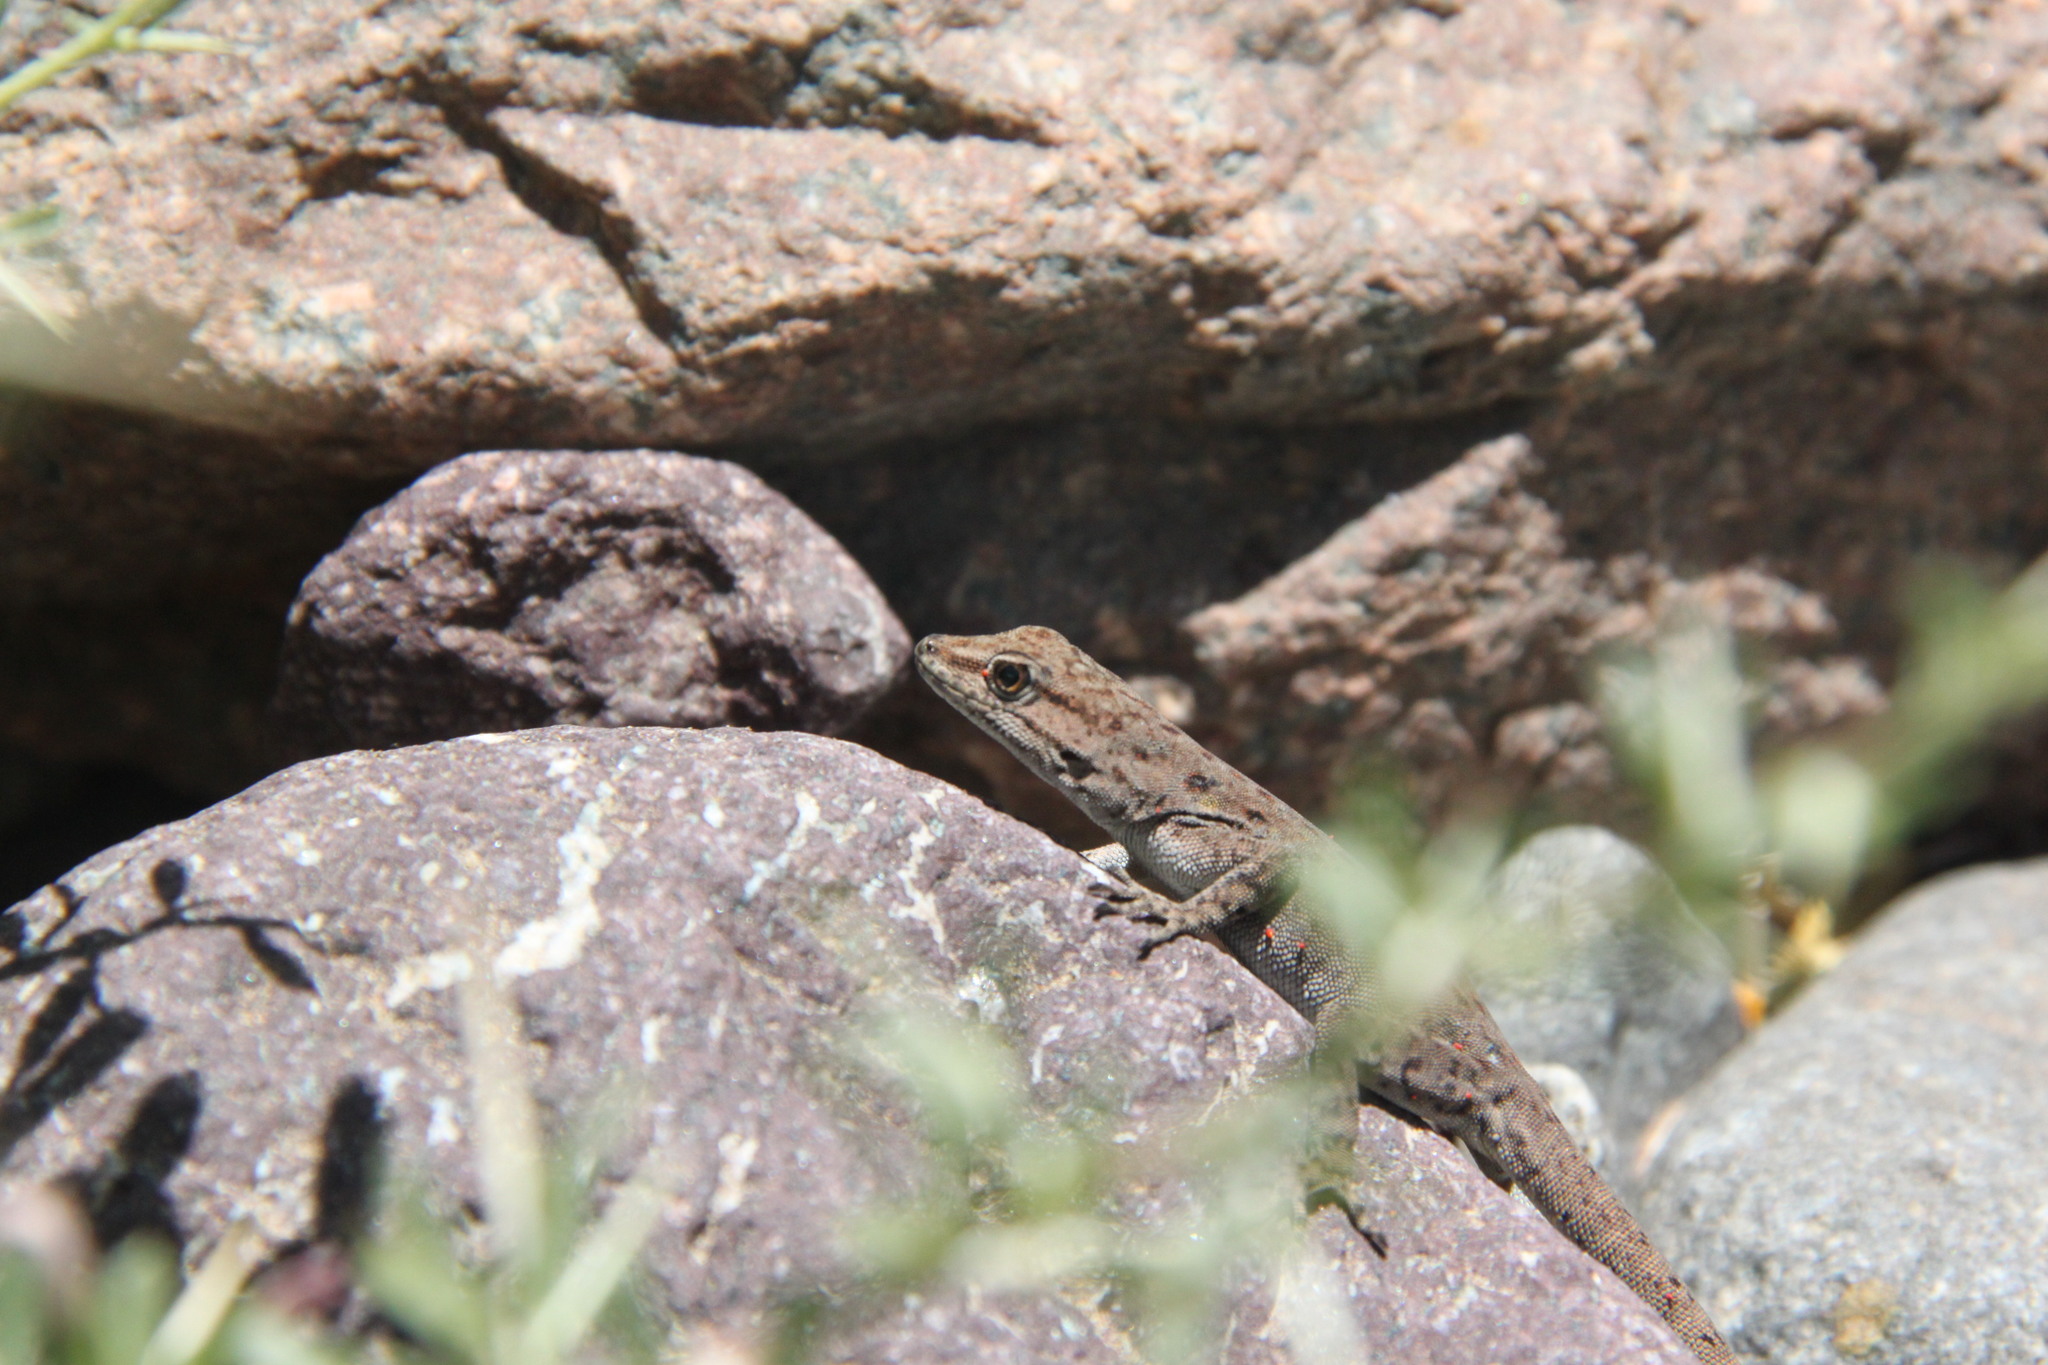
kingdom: Animalia
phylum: Chordata
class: Squamata
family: Sphaerodactylidae
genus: Quedenfeldtia
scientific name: Quedenfeldtia moerens
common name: Atlas day gecko
